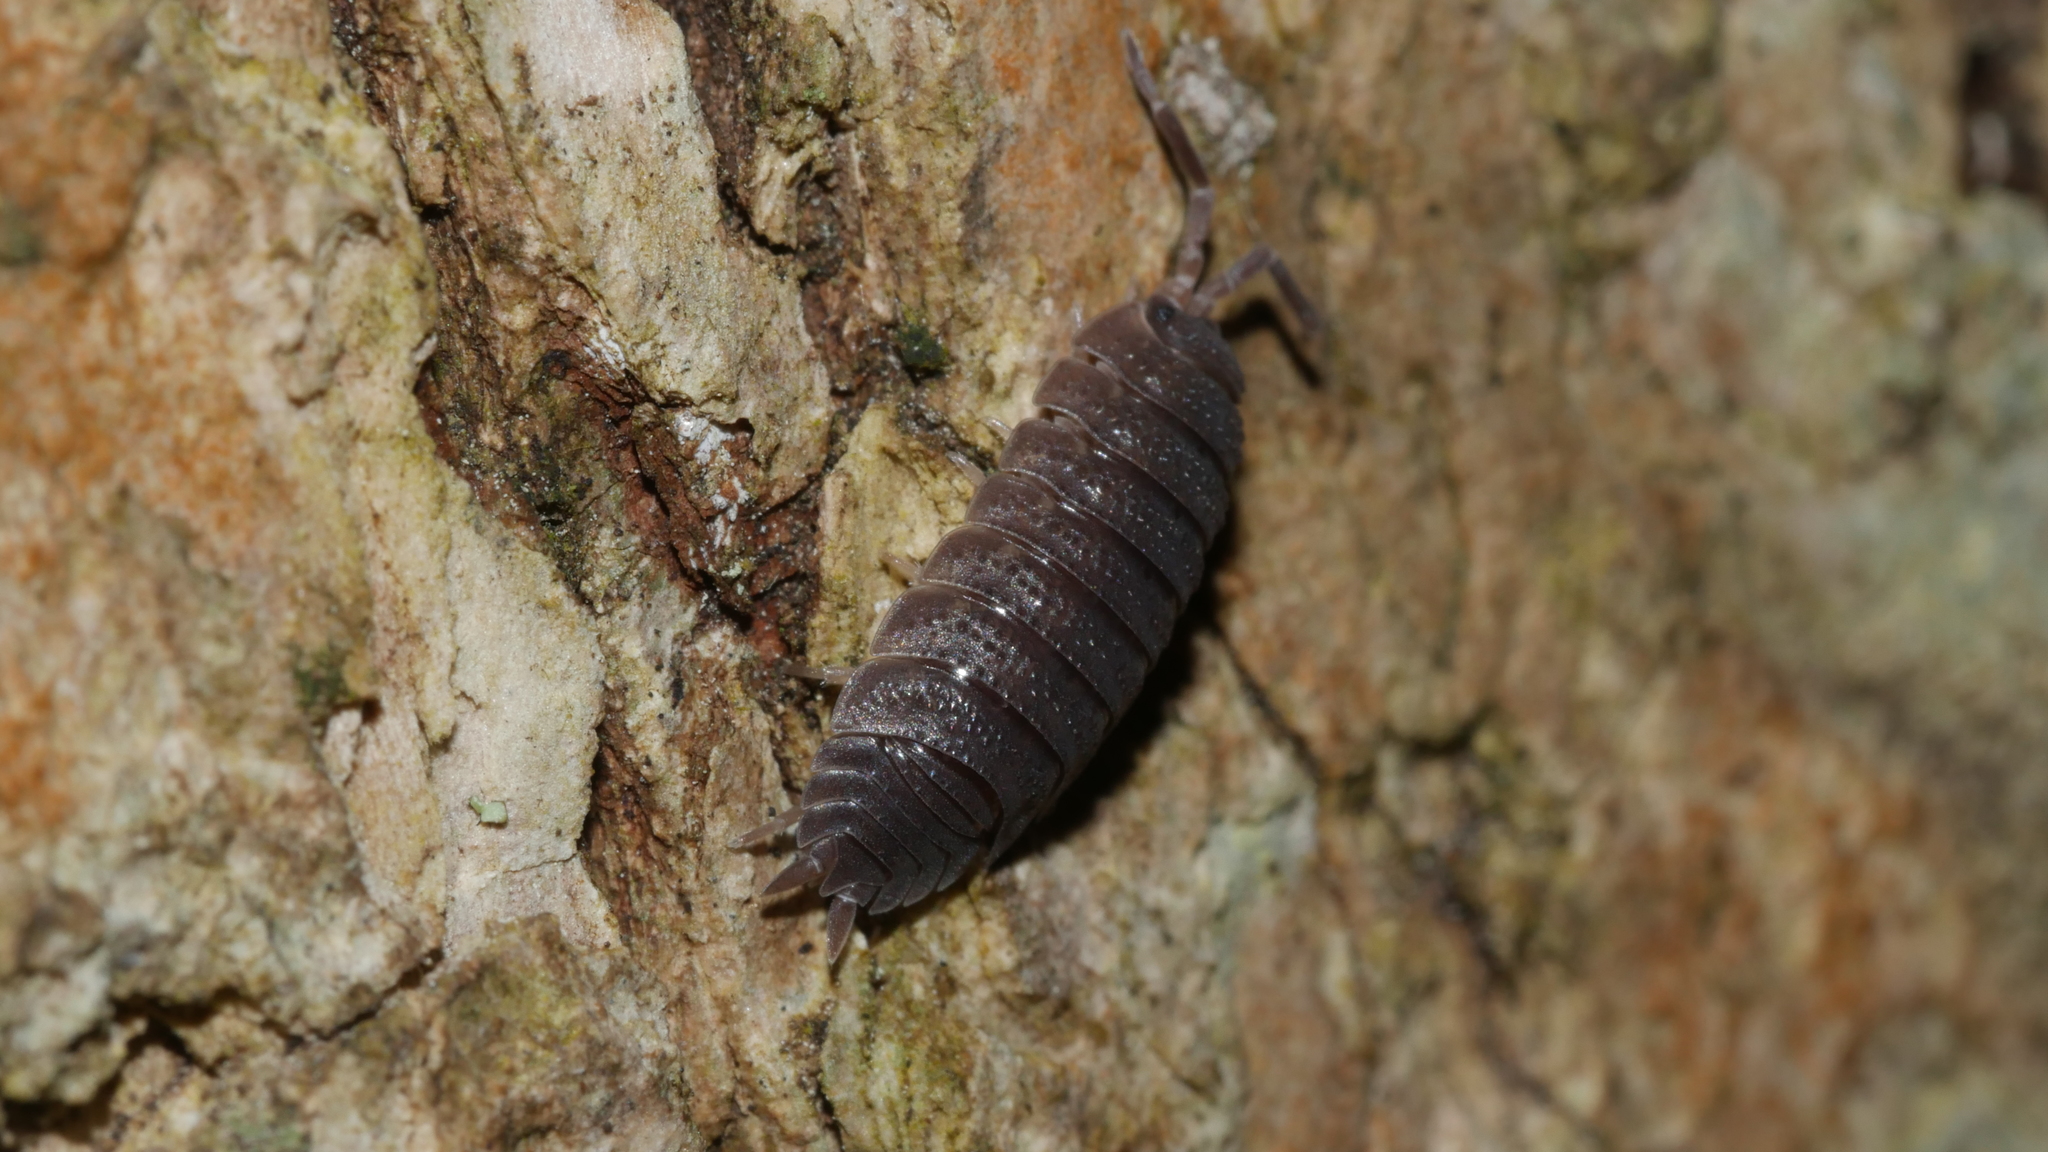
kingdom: Animalia
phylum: Arthropoda
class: Malacostraca
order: Isopoda
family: Porcellionidae
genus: Porcellio
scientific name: Porcellio scaber
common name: Common rough woodlouse
